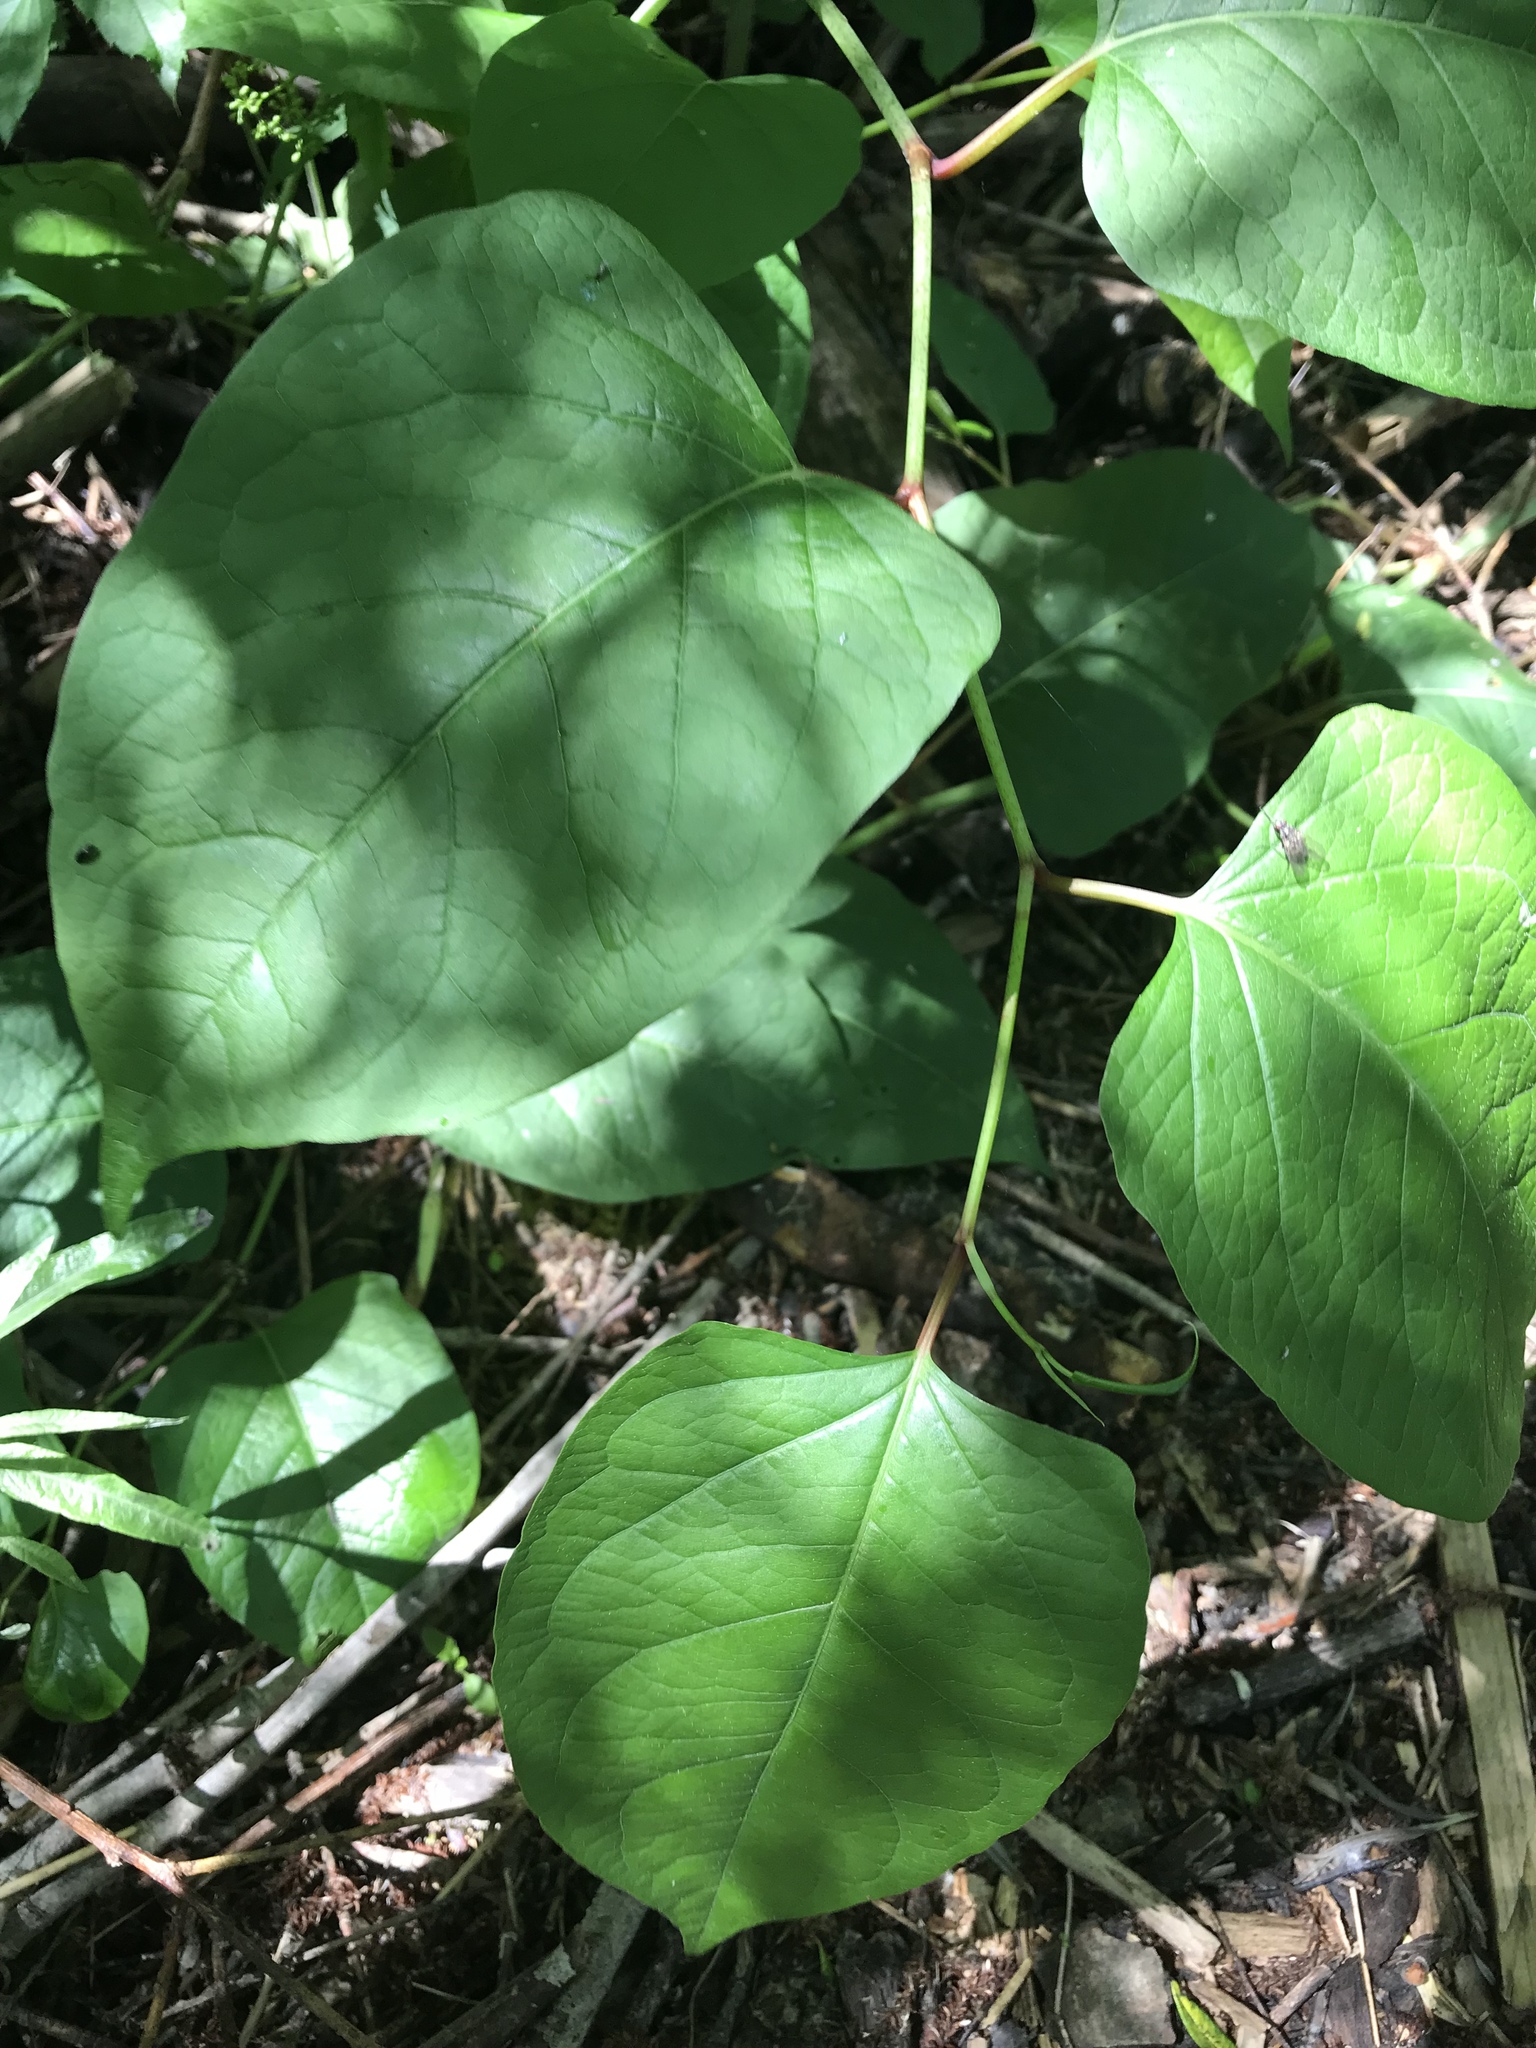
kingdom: Plantae
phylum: Tracheophyta
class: Magnoliopsida
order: Caryophyllales
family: Polygonaceae
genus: Reynoutria
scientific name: Reynoutria japonica
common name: Japanese knotweed
